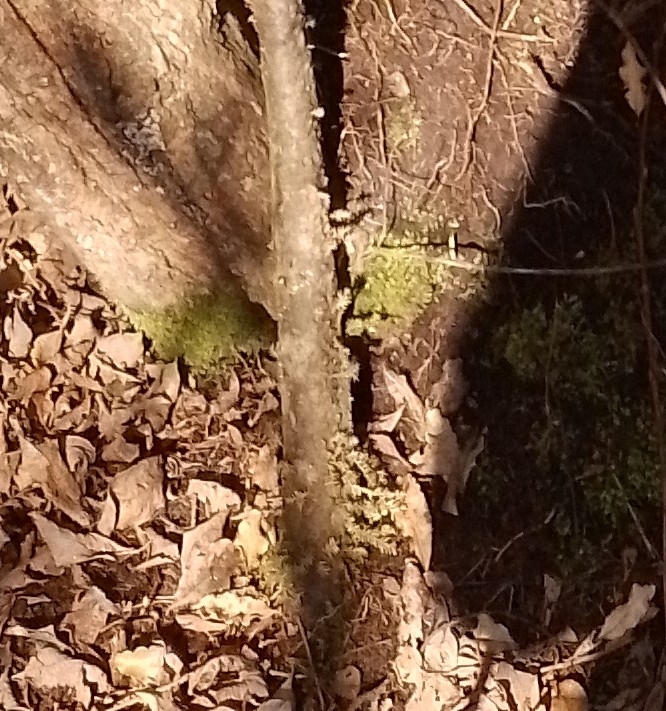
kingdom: Plantae
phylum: Tracheophyta
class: Pinopsida
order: Pinales
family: Podocarpaceae
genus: Dacrycarpus
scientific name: Dacrycarpus dacrydioides
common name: White pine
